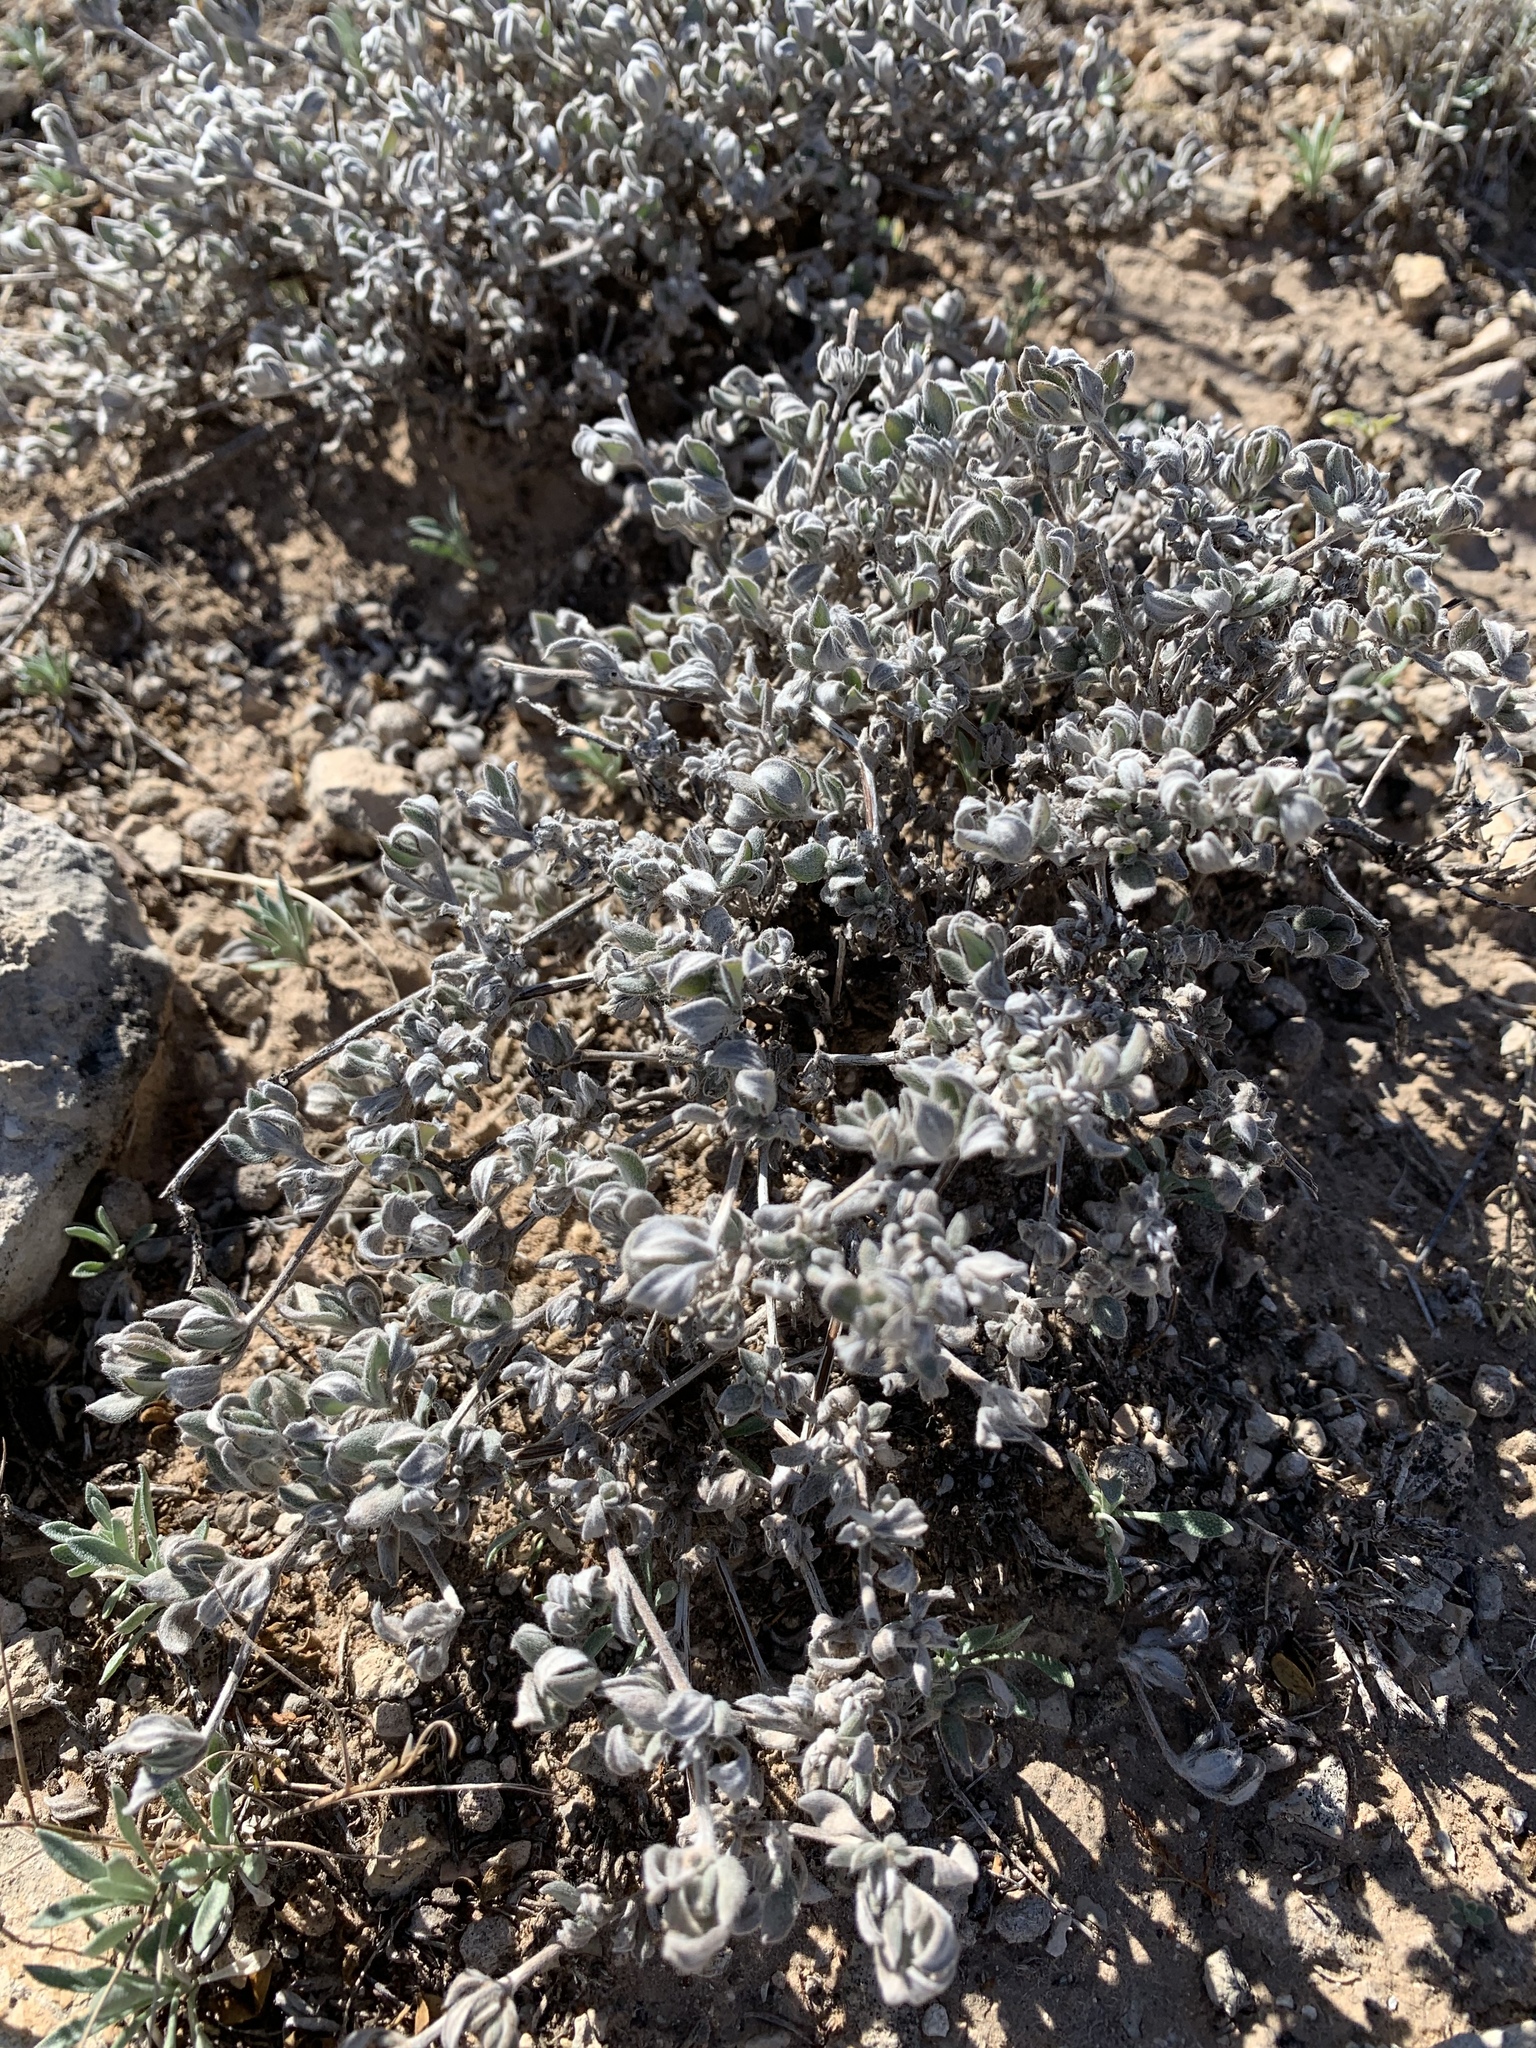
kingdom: Plantae
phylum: Tracheophyta
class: Magnoliopsida
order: Boraginales
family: Ehretiaceae
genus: Tiquilia
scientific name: Tiquilia canescens
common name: Hairy tiquilia
